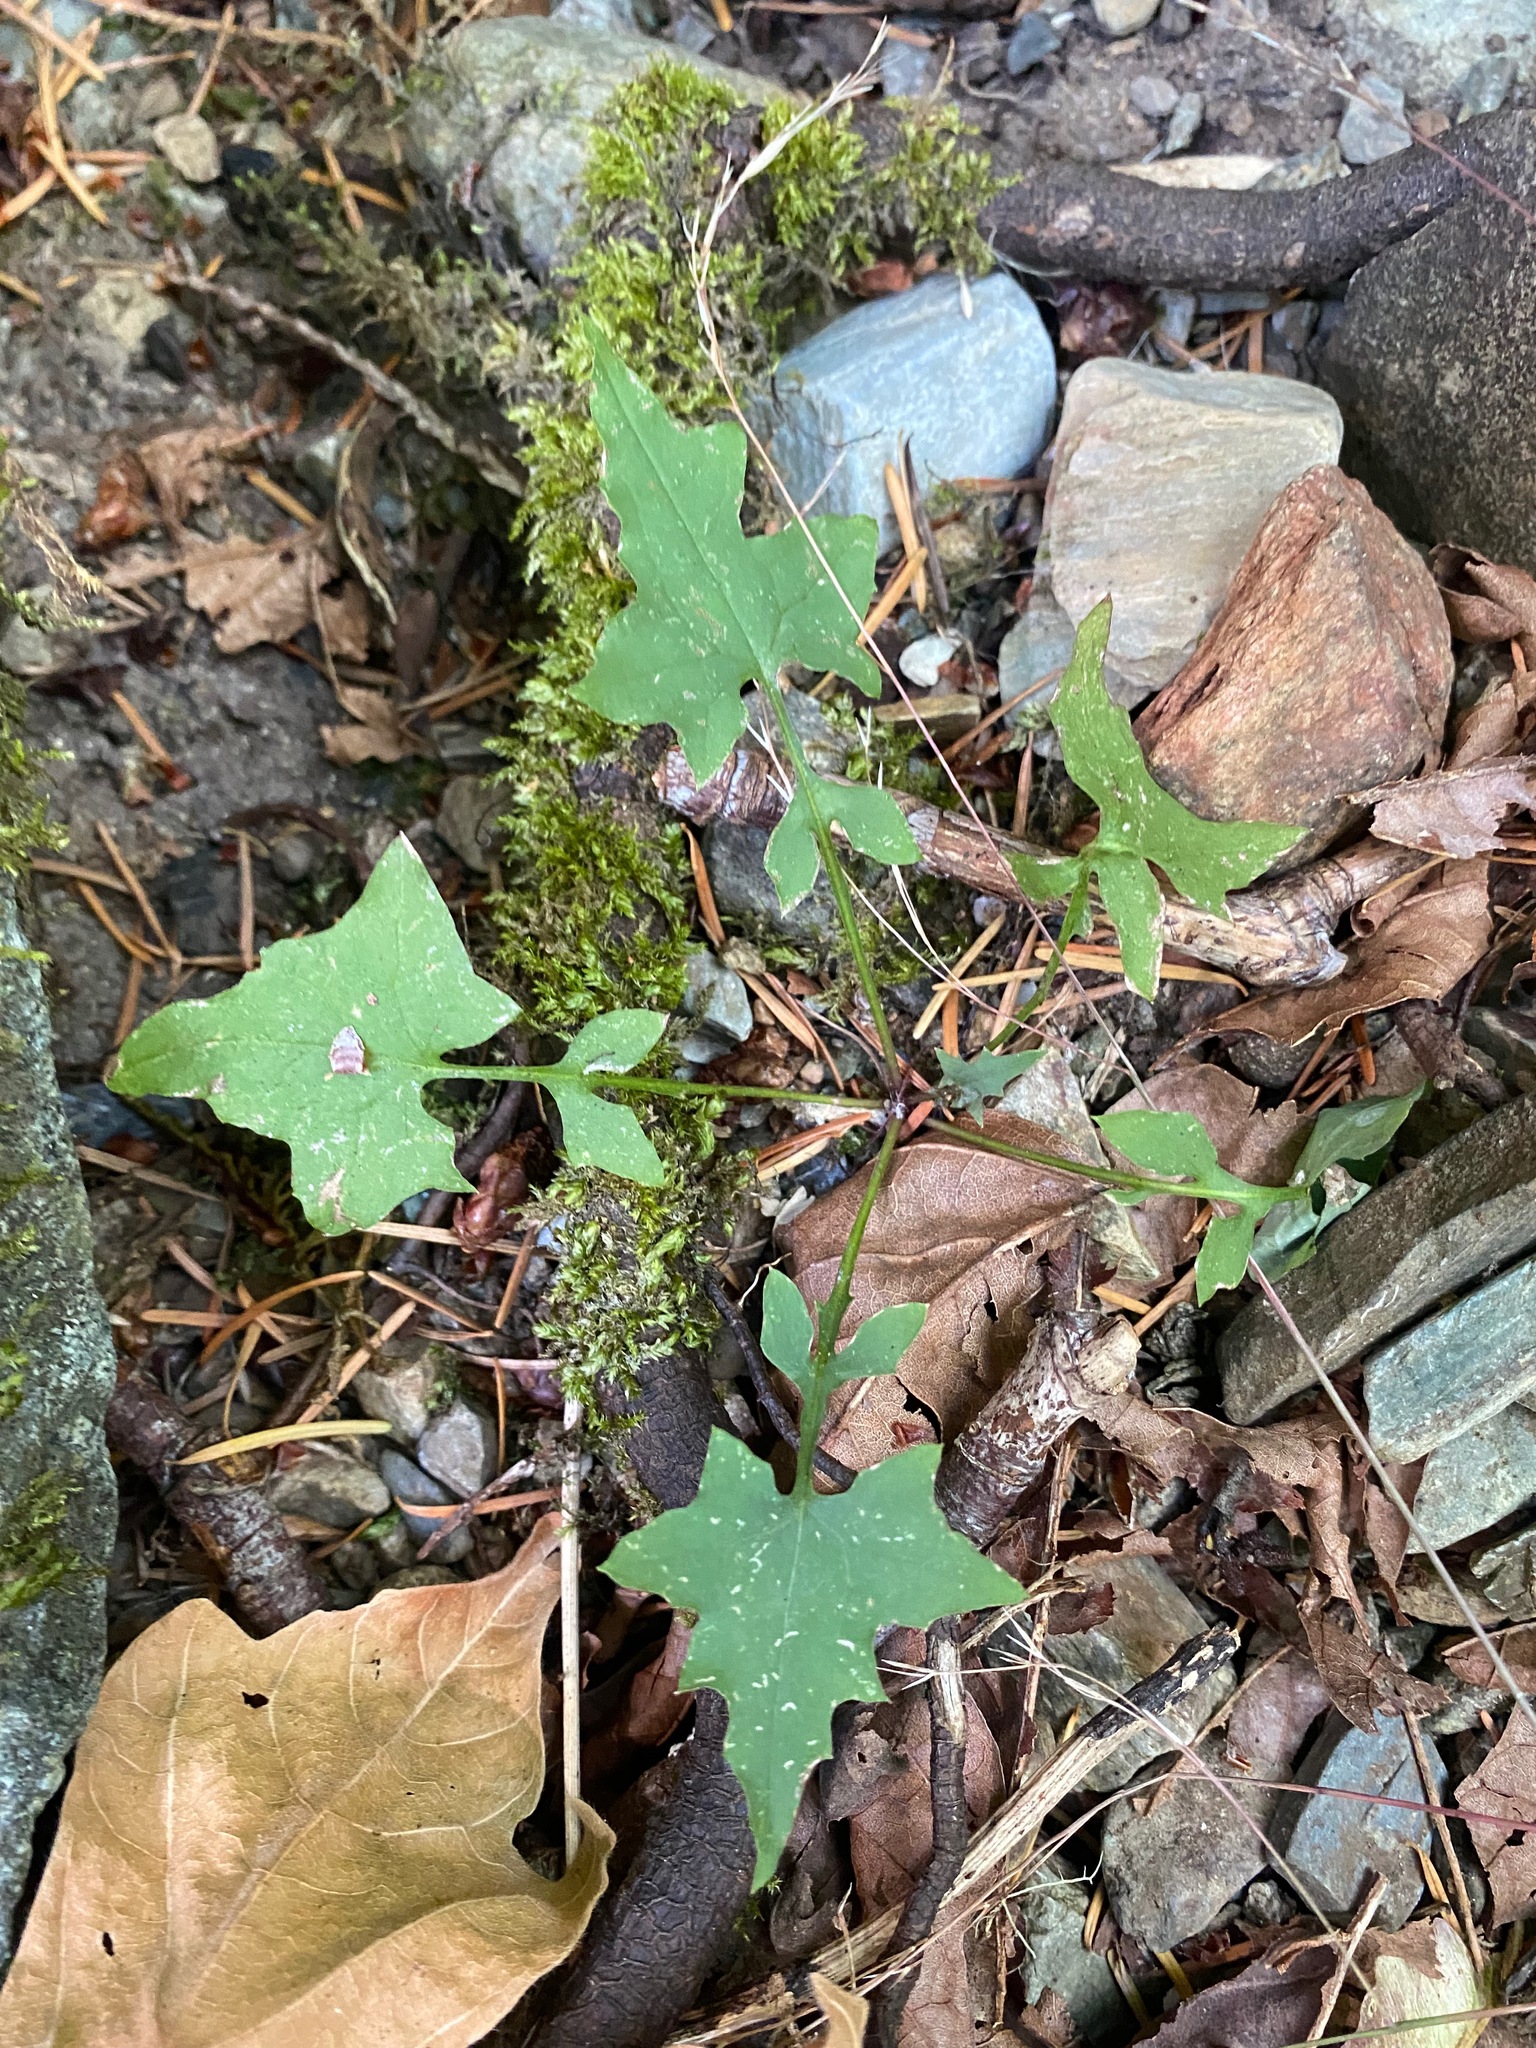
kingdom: Plantae
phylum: Tracheophyta
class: Magnoliopsida
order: Asterales
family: Asteraceae
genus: Mycelis
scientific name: Mycelis muralis
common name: Wall lettuce
